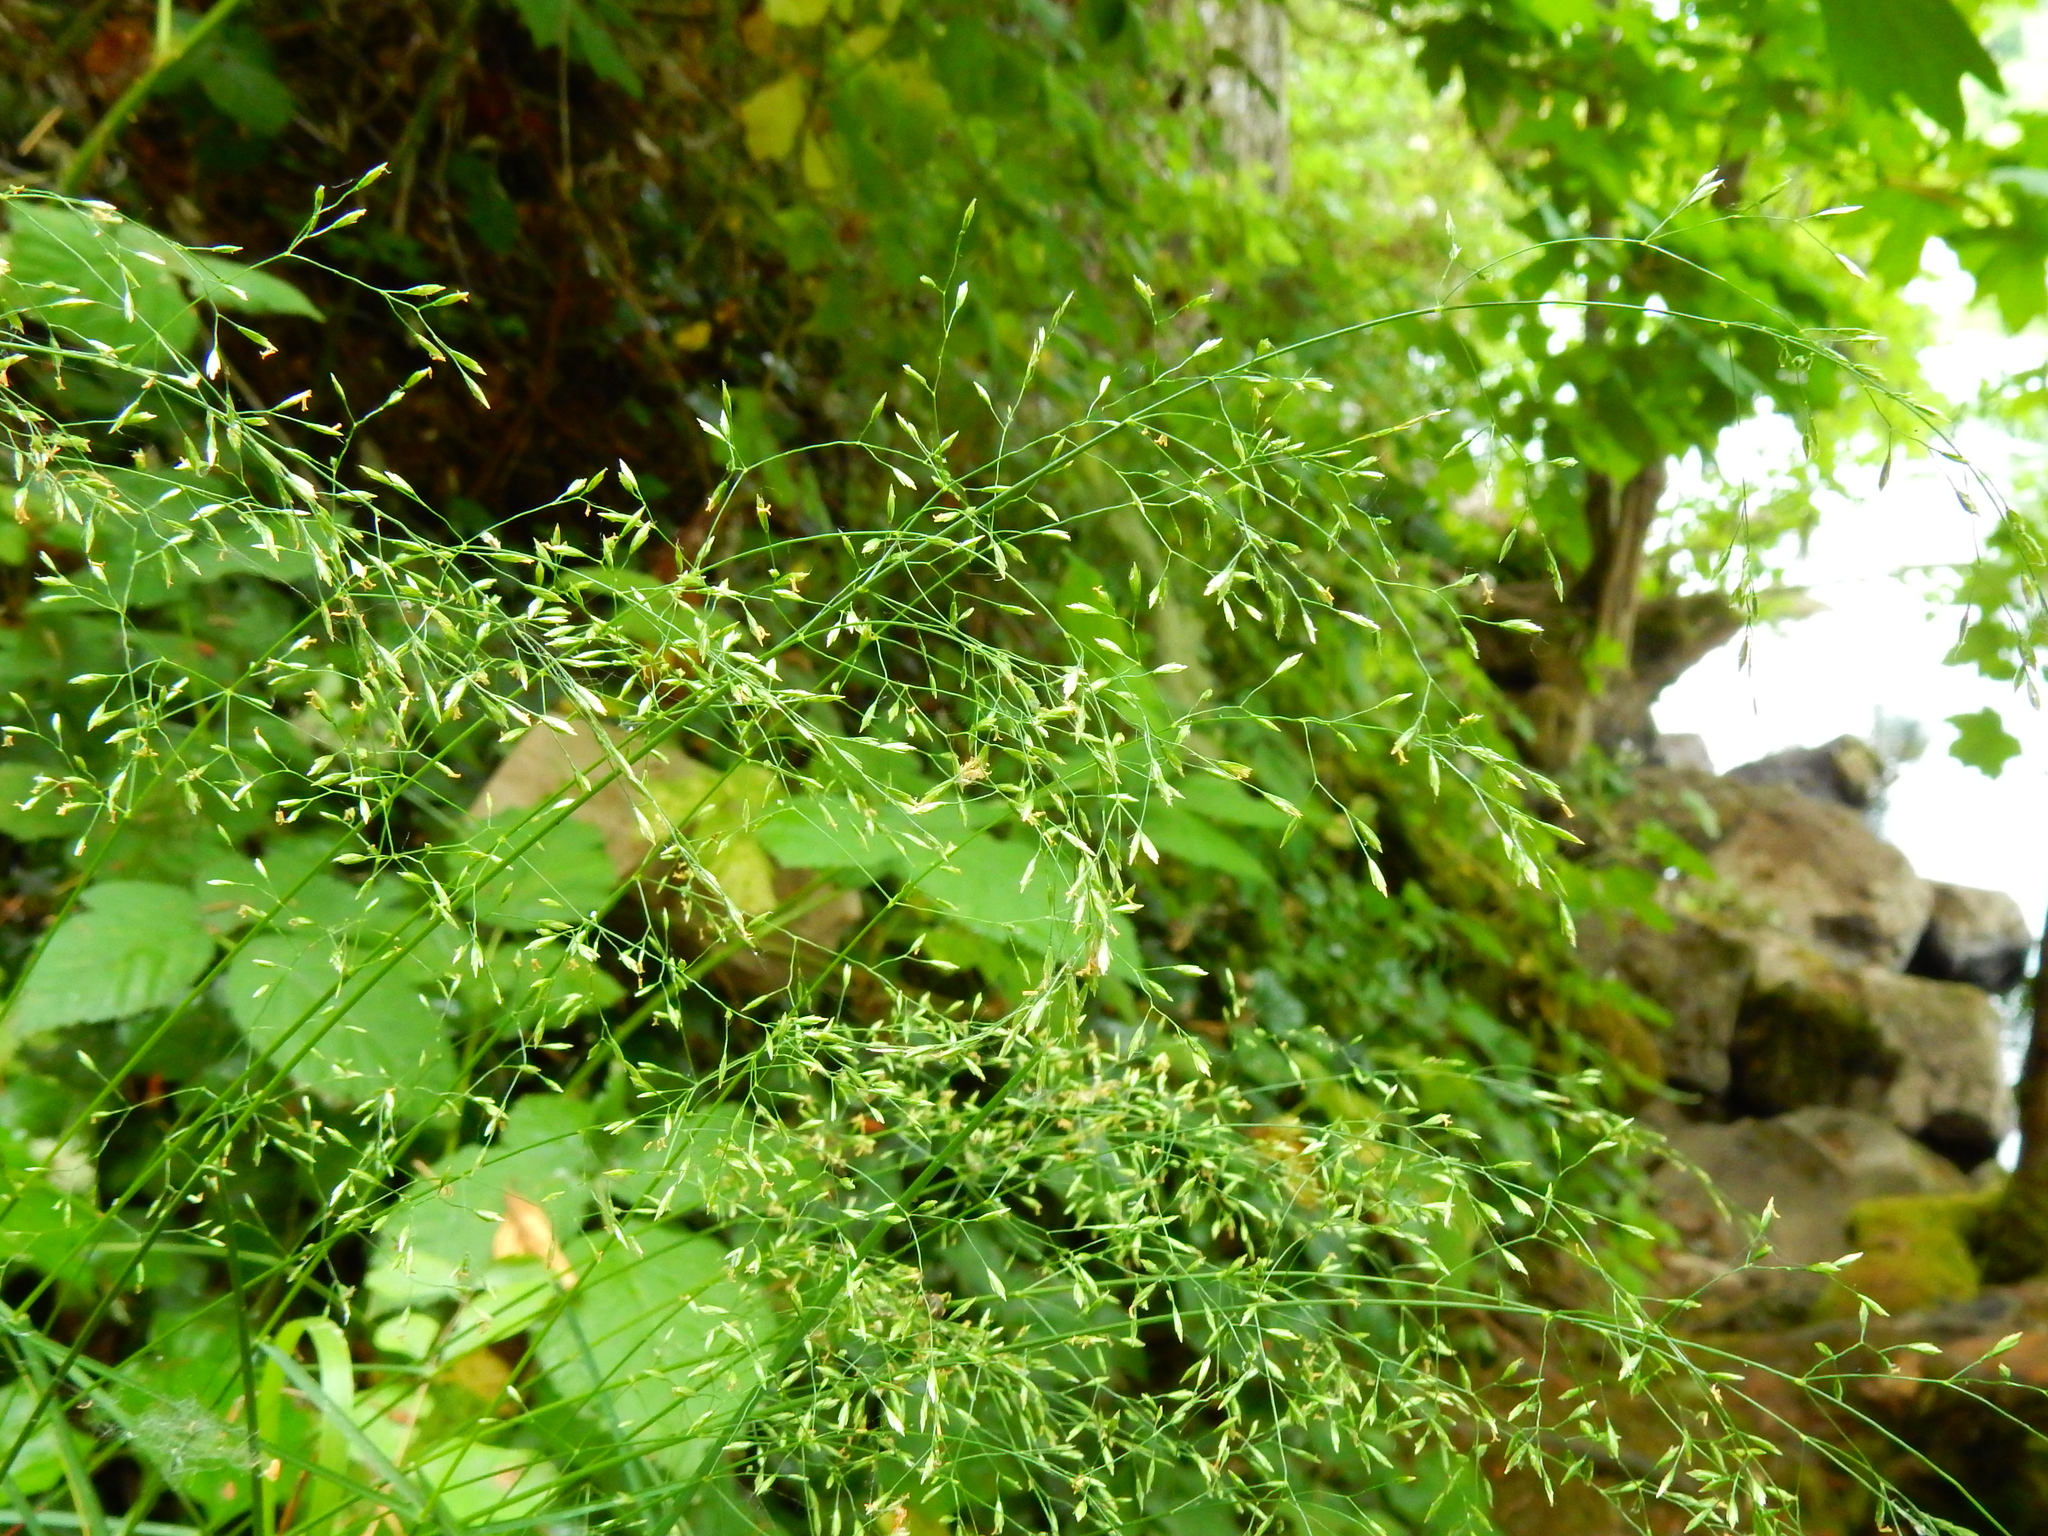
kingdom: Plantae
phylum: Tracheophyta
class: Liliopsida
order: Poales
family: Poaceae
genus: Poa
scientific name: Poa nemoralis
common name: Wood bluegrass
